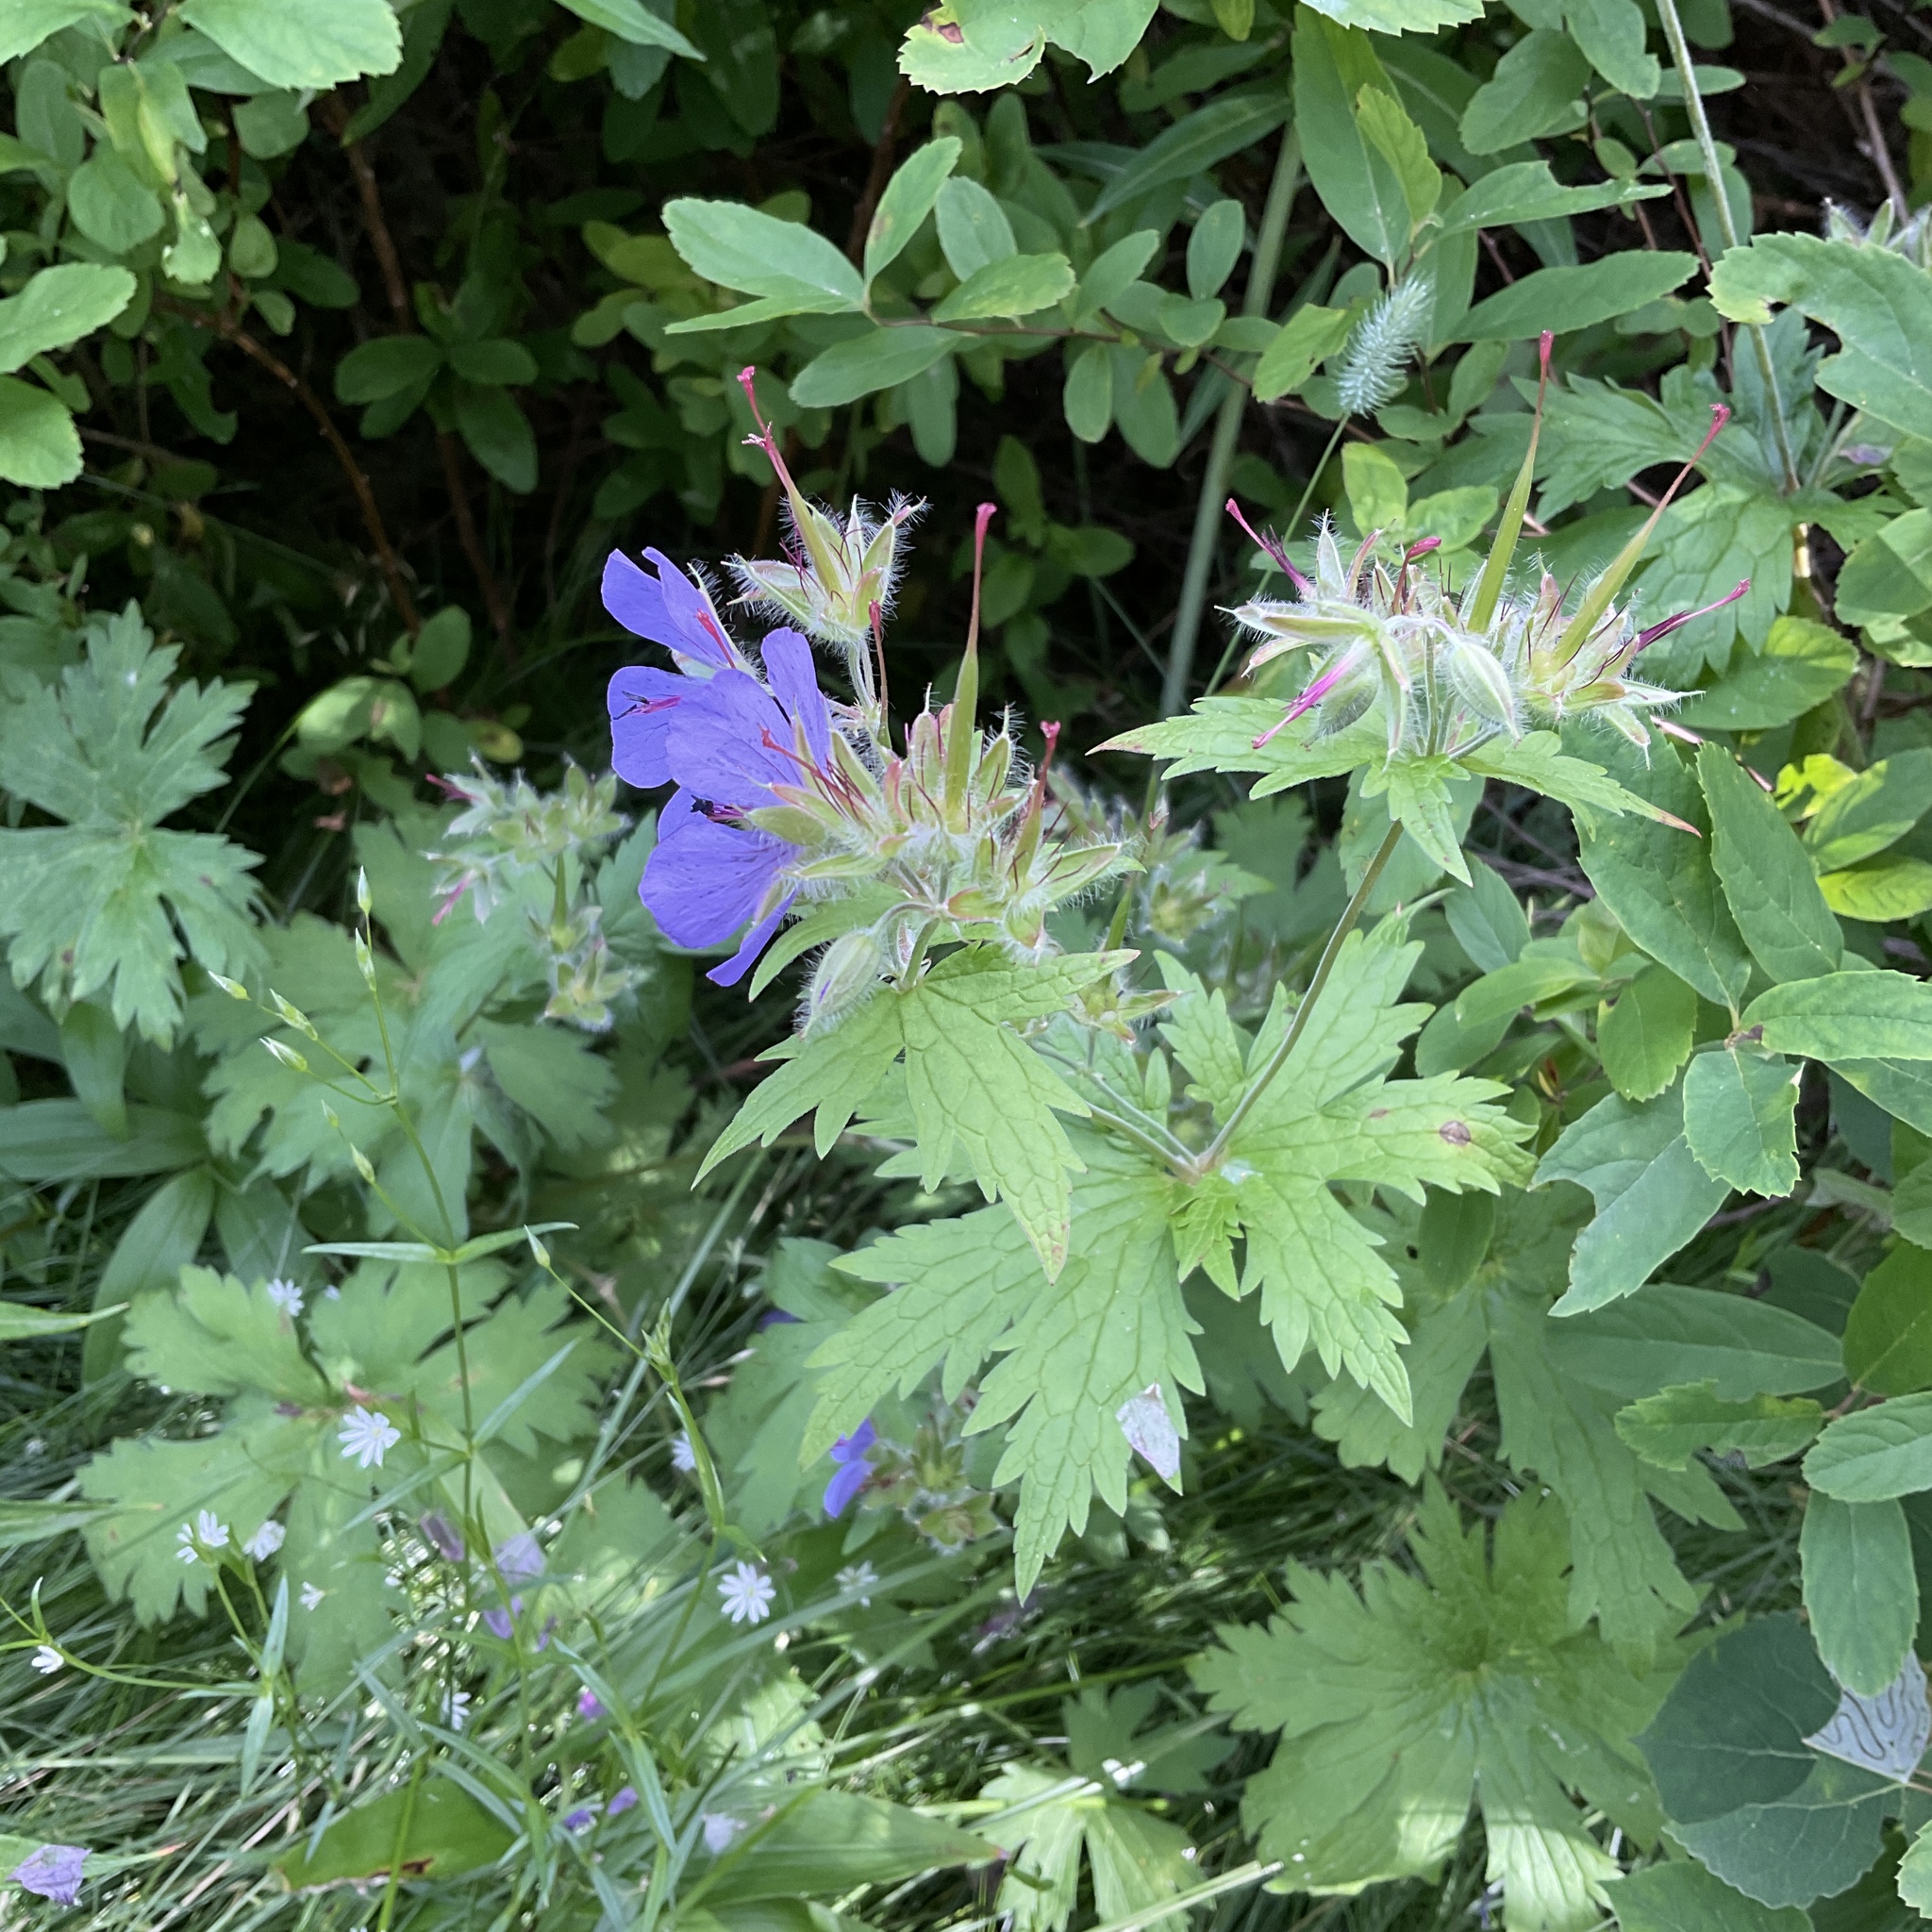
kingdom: Plantae
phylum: Tracheophyta
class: Magnoliopsida
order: Geraniales
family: Geraniaceae
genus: Geranium
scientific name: Geranium erianthum
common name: Northern crane's-bill
